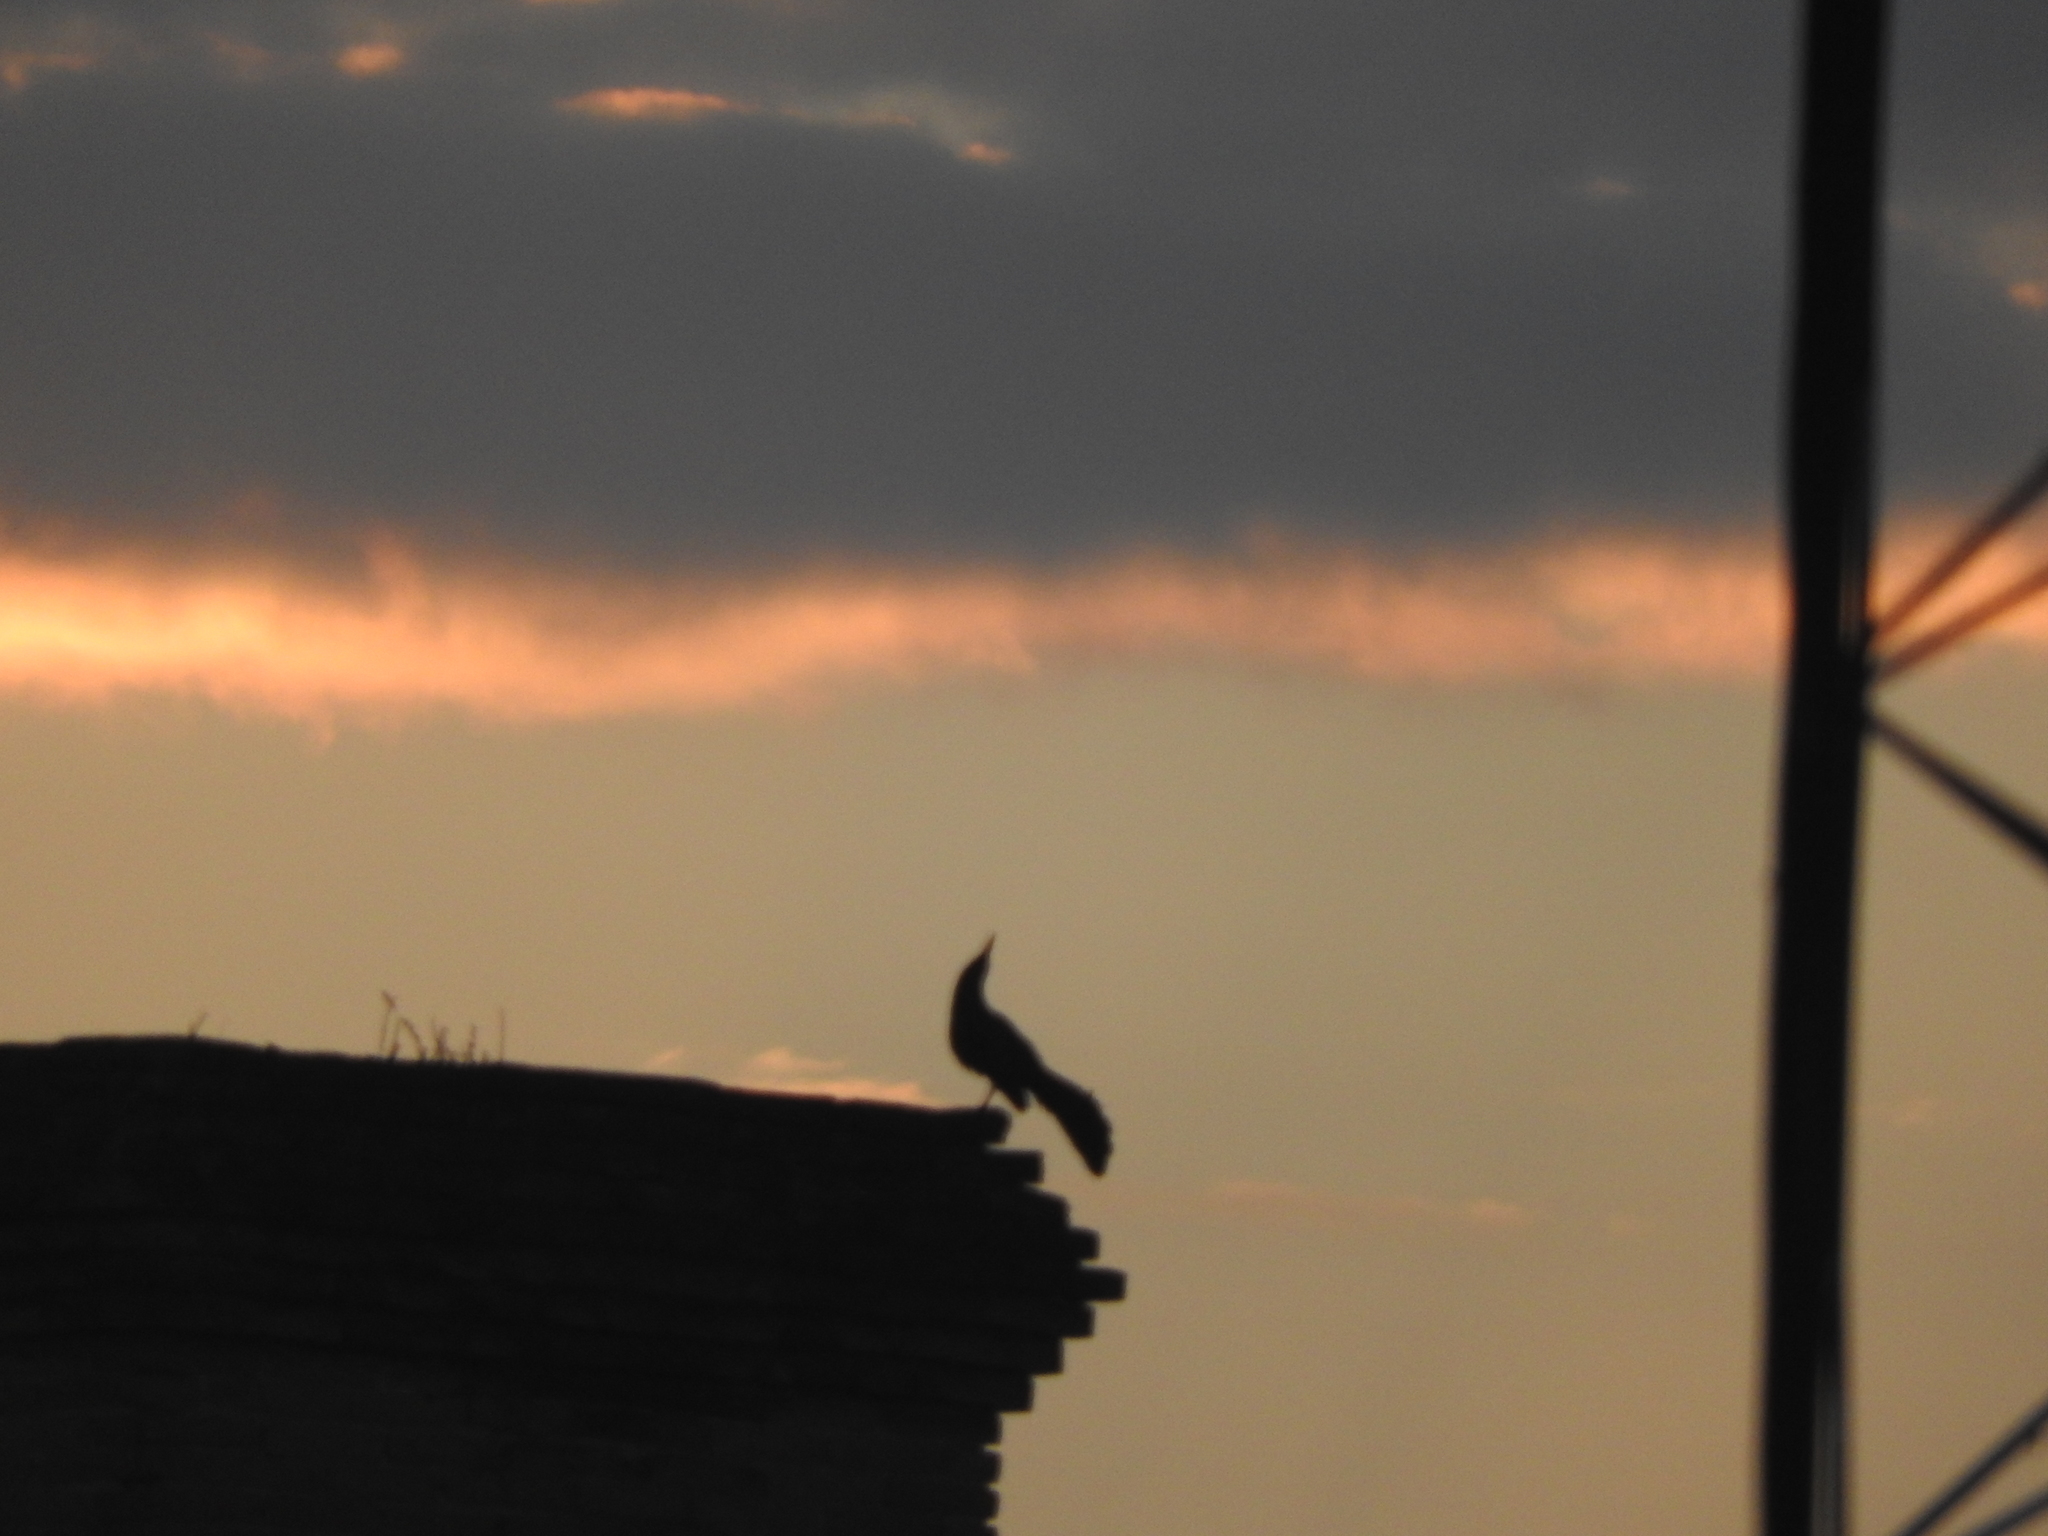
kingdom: Animalia
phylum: Chordata
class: Aves
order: Passeriformes
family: Icteridae
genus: Quiscalus
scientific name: Quiscalus mexicanus
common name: Great-tailed grackle
